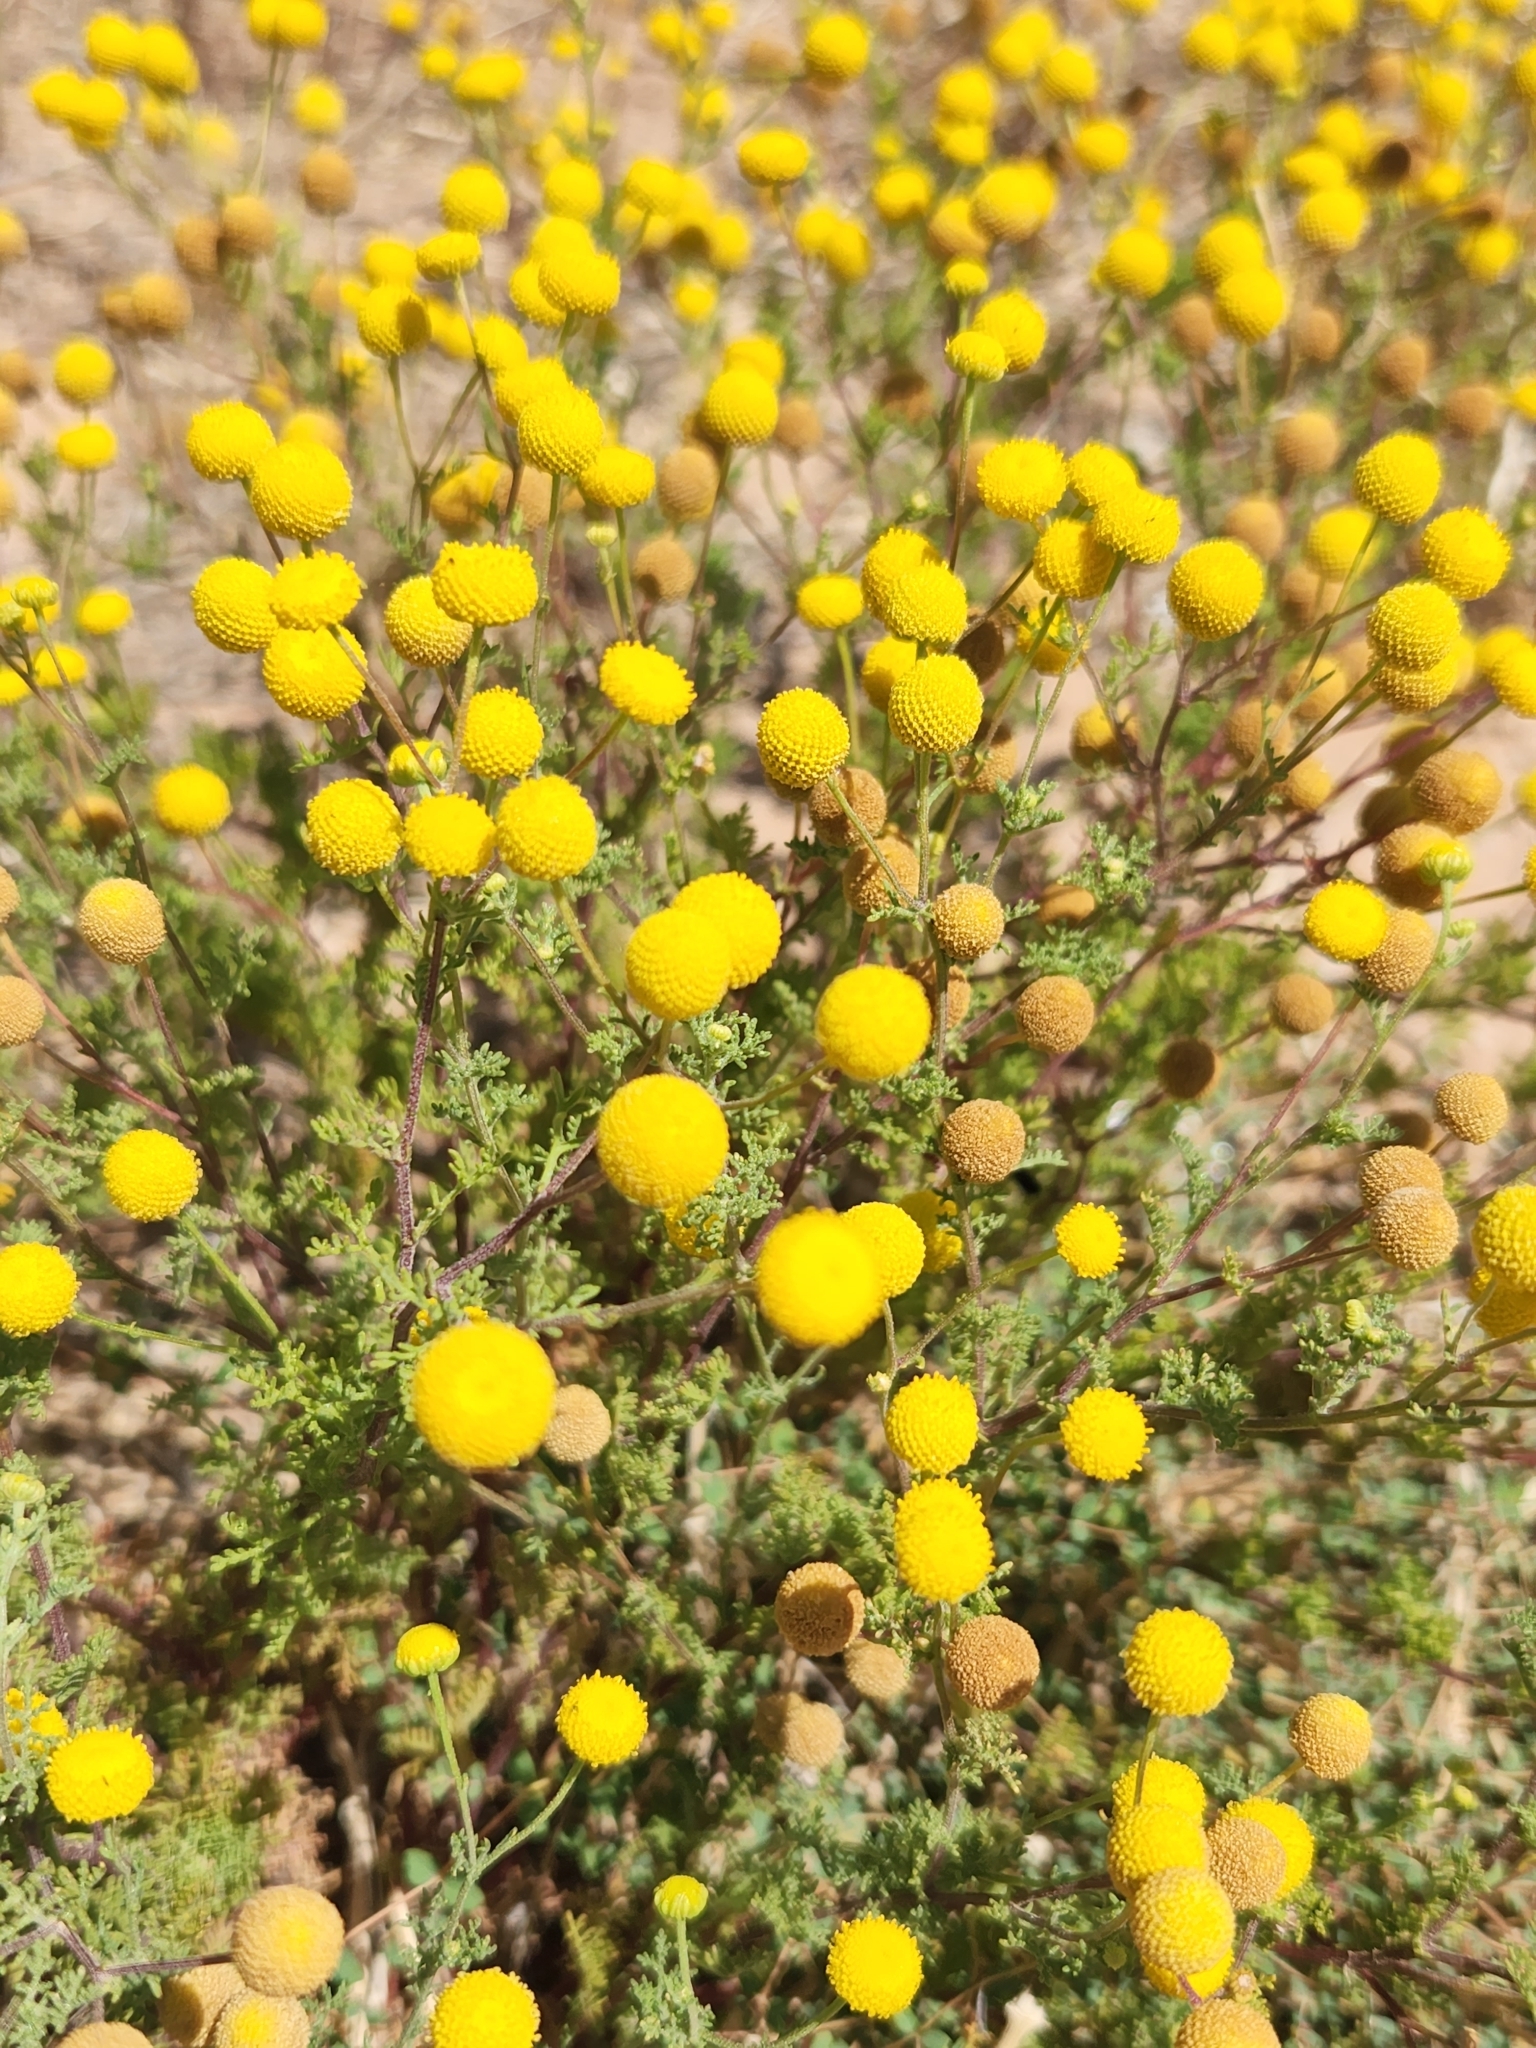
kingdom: Plantae
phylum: Tracheophyta
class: Magnoliopsida
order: Asterales
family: Asteraceae
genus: Oncosiphon
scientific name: Oncosiphon pilulifer
